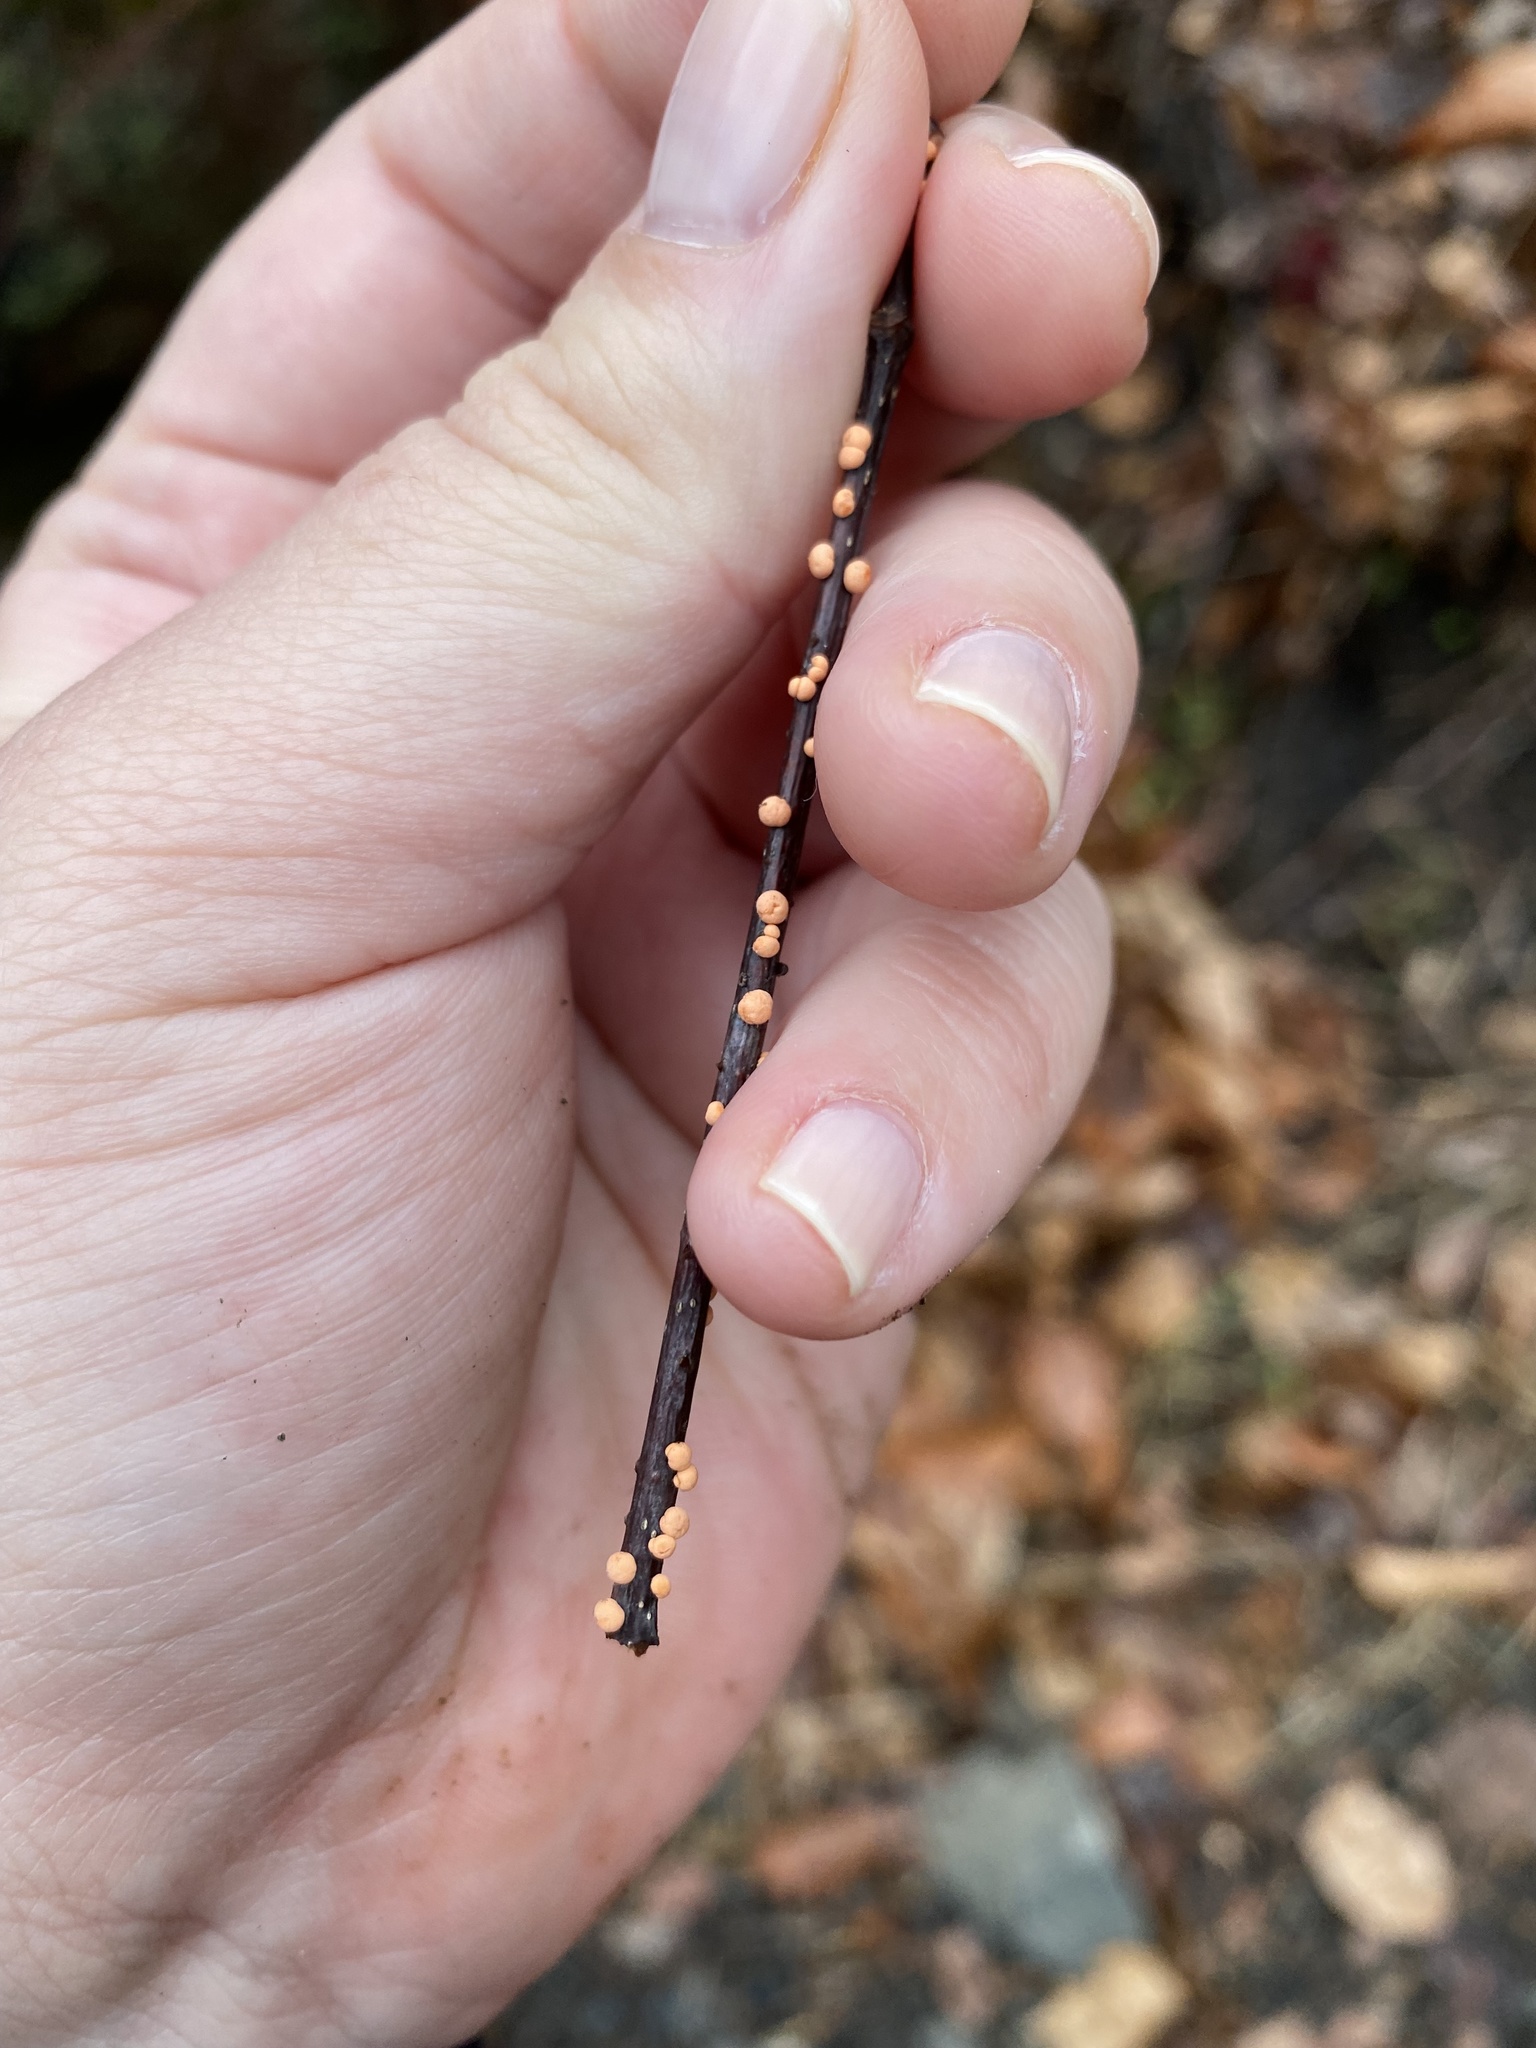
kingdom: Fungi
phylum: Ascomycota
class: Sordariomycetes
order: Hypocreales
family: Nectriaceae
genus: Nectria
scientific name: Nectria cinnabarina
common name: Coral spot
